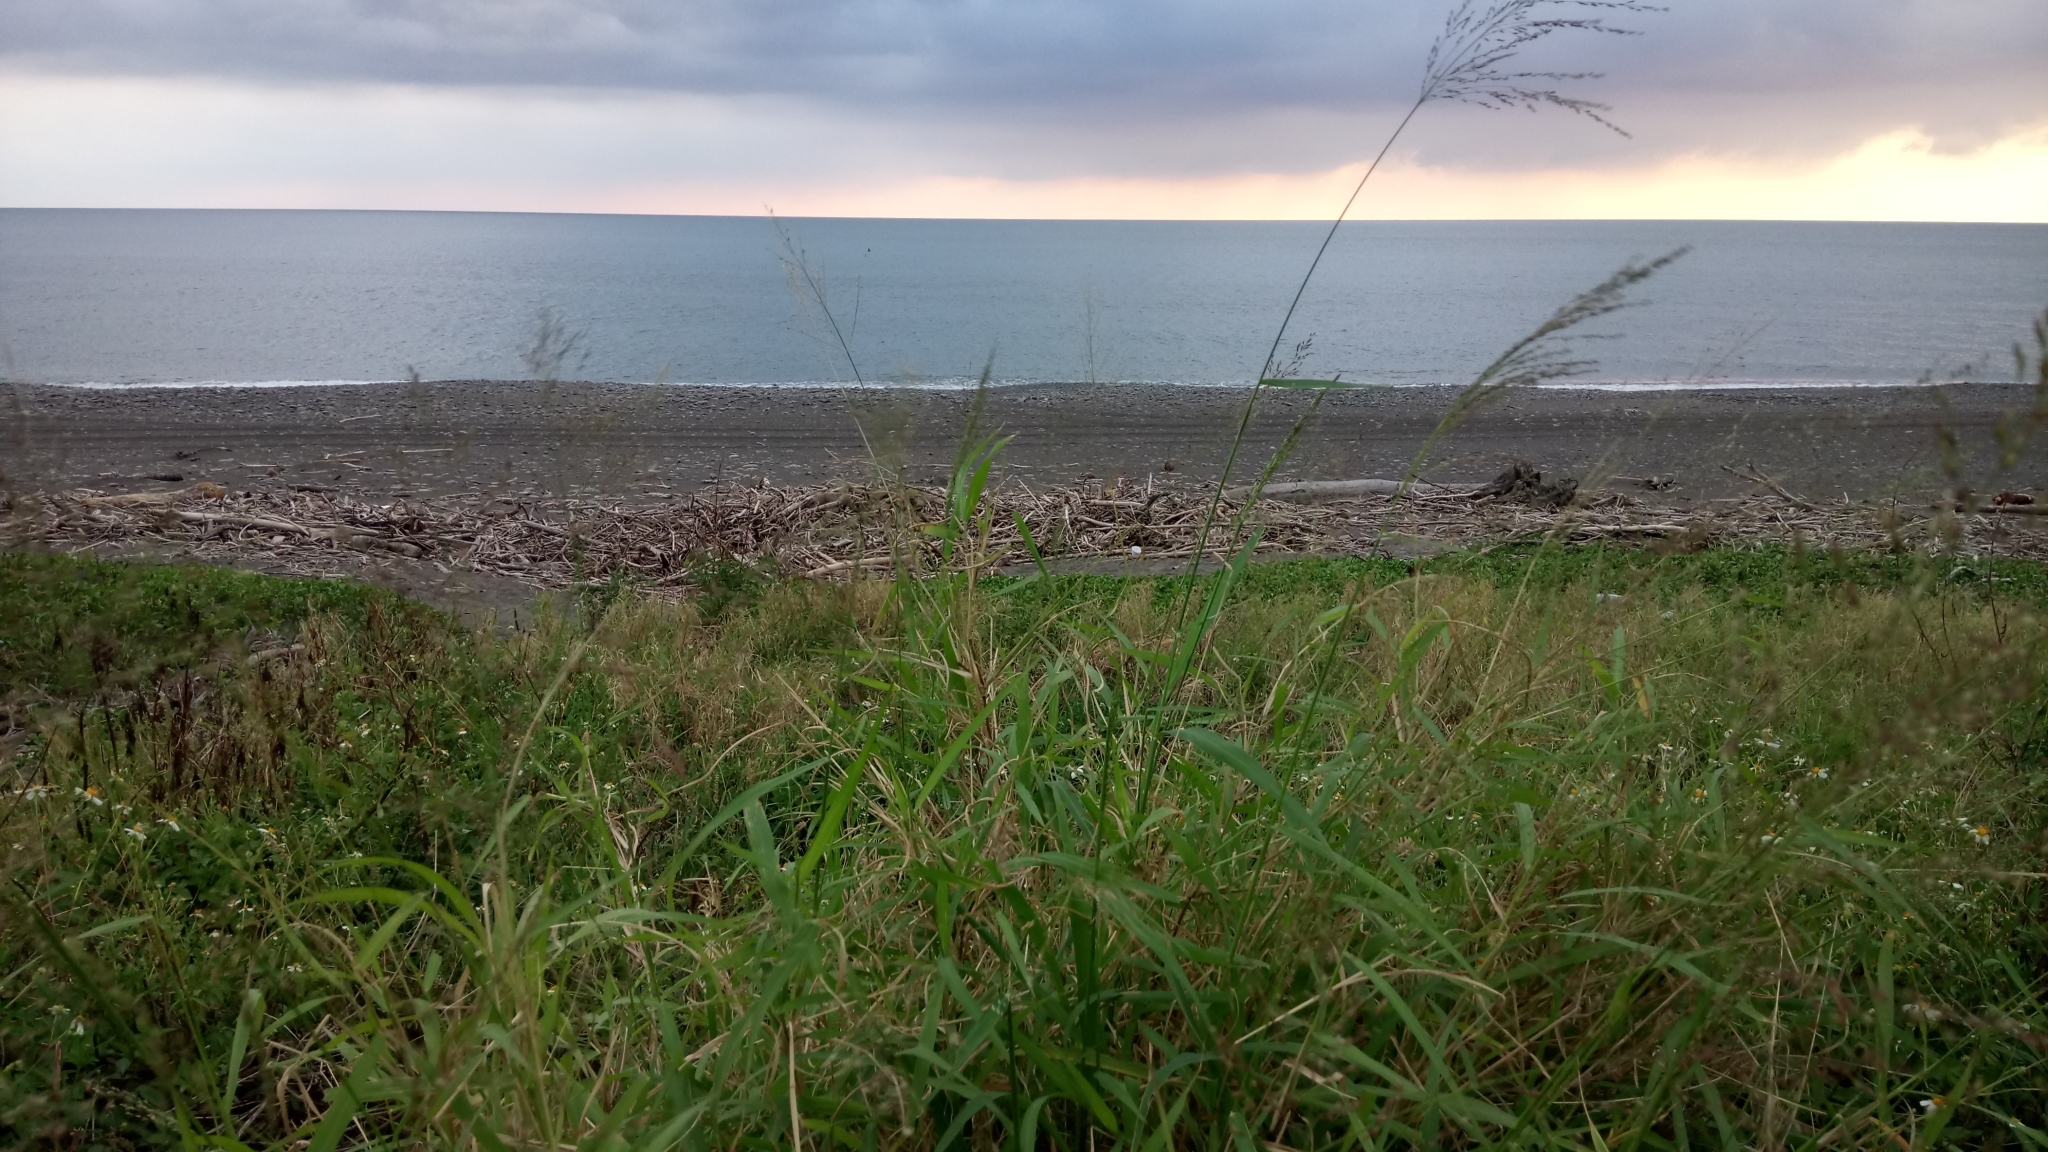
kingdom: Plantae
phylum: Tracheophyta
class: Liliopsida
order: Poales
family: Poaceae
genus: Megathyrsus
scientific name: Megathyrsus maximus
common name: Guineagrass
